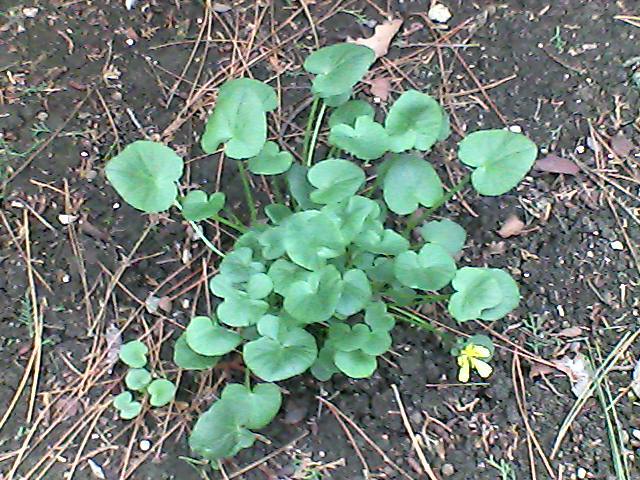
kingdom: Plantae
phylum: Tracheophyta
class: Magnoliopsida
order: Ranunculales
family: Ranunculaceae
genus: Ficaria
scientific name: Ficaria verna
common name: Lesser celandine
